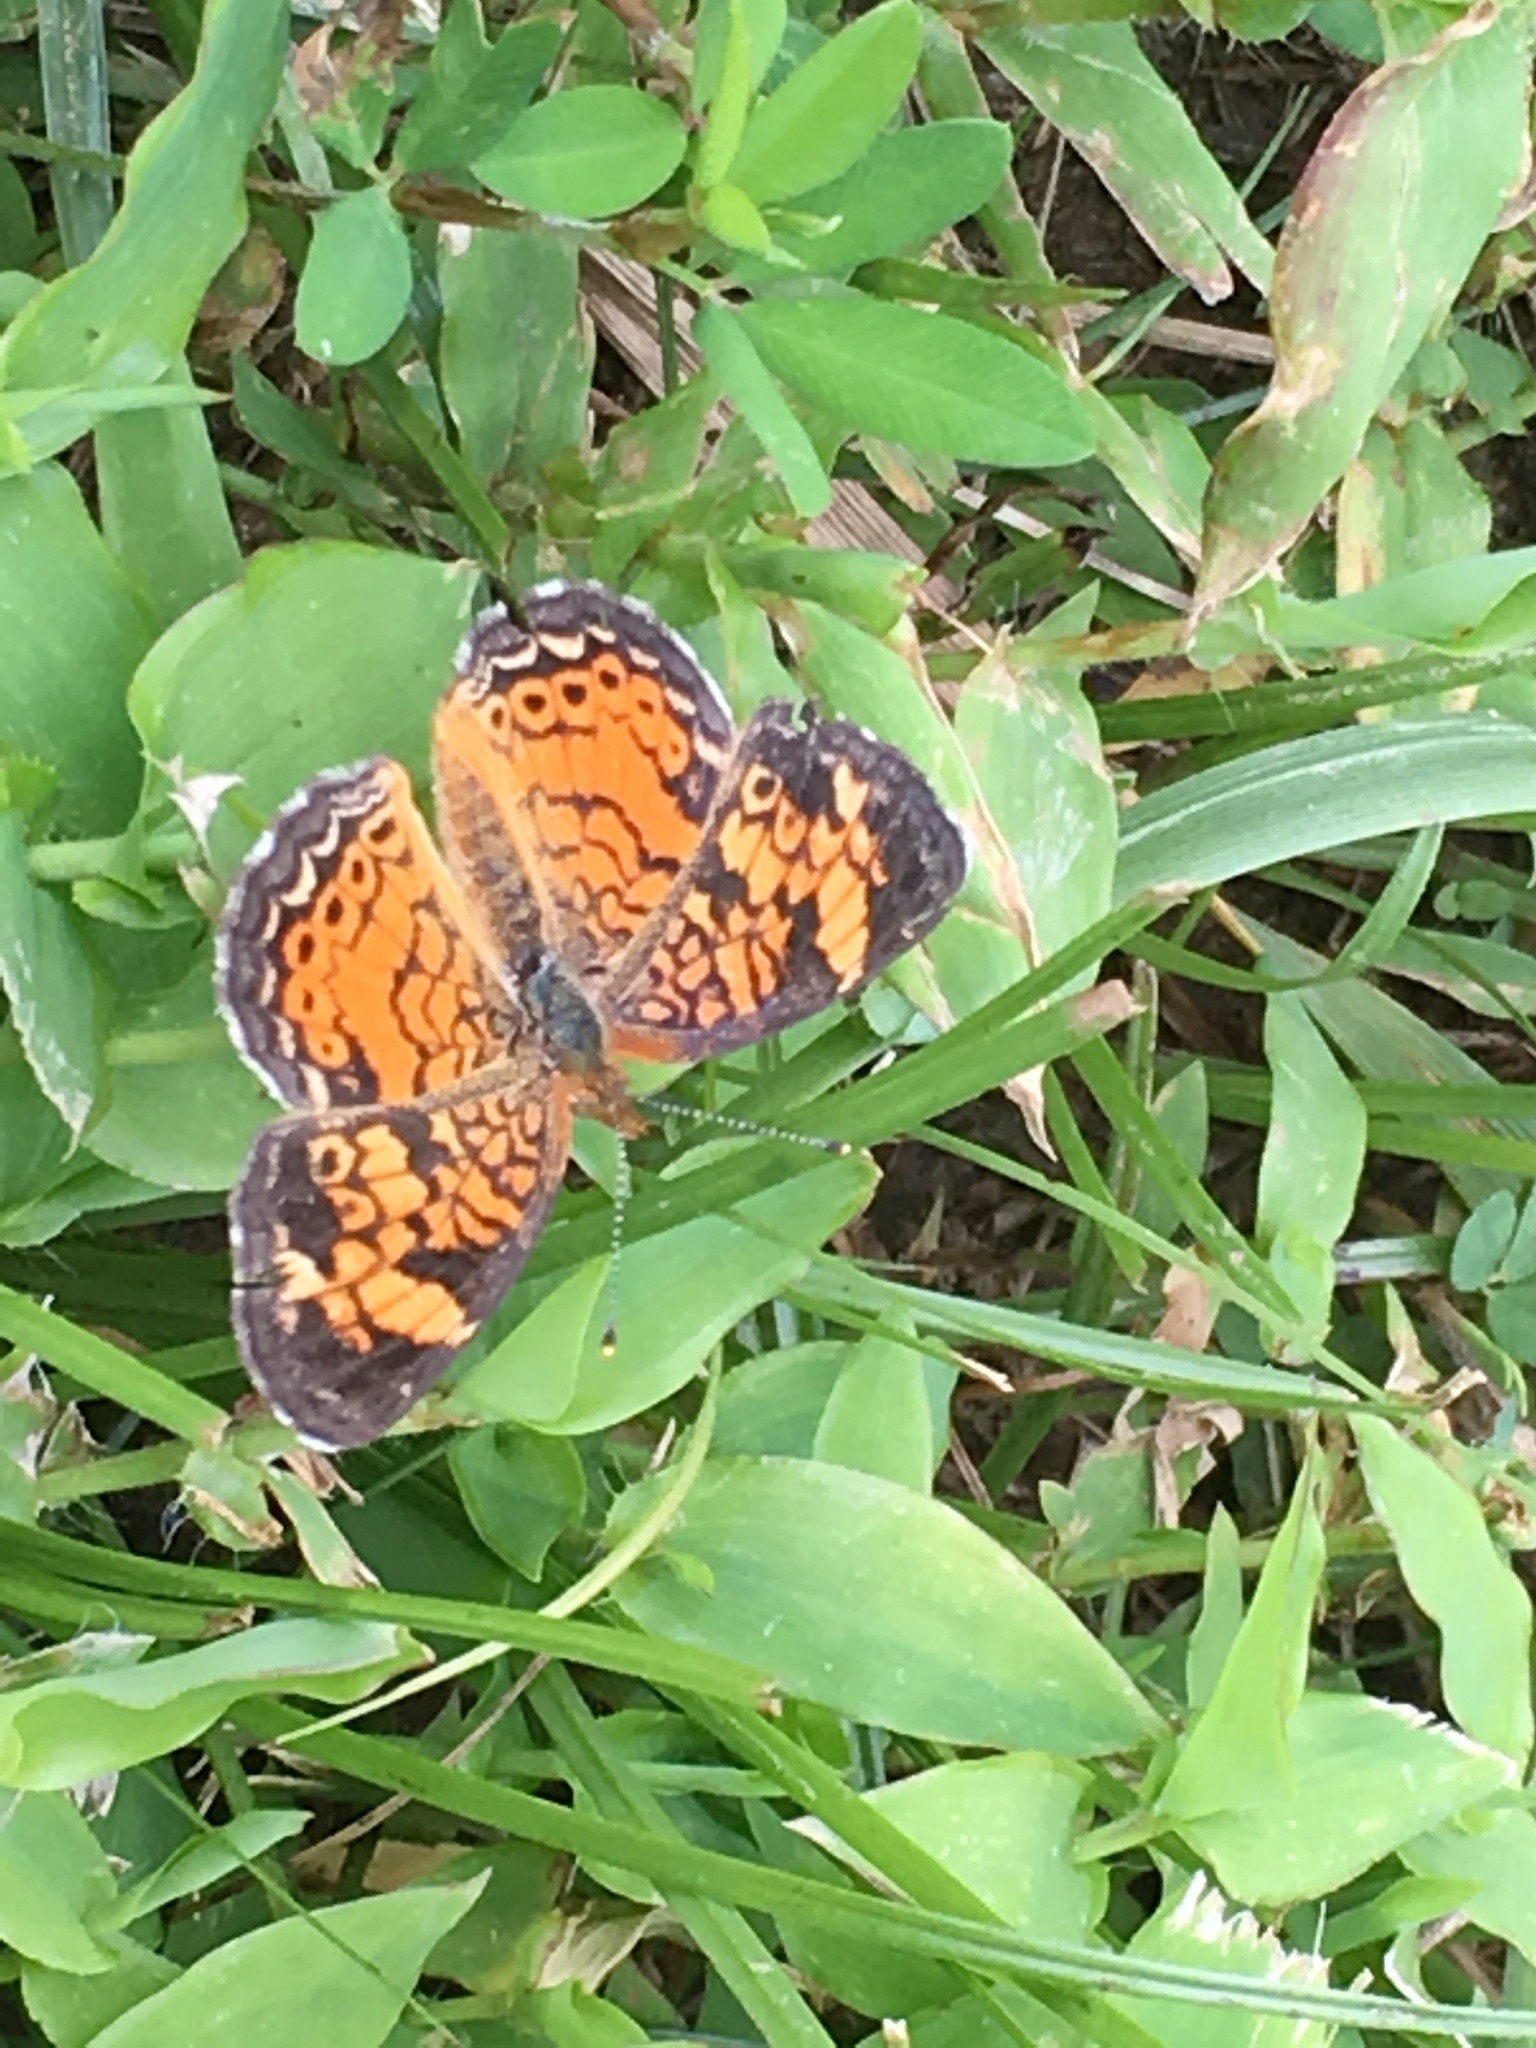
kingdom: Animalia
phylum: Arthropoda
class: Insecta
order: Lepidoptera
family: Nymphalidae
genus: Phyciodes
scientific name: Phyciodes tharos
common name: Pearl crescent
